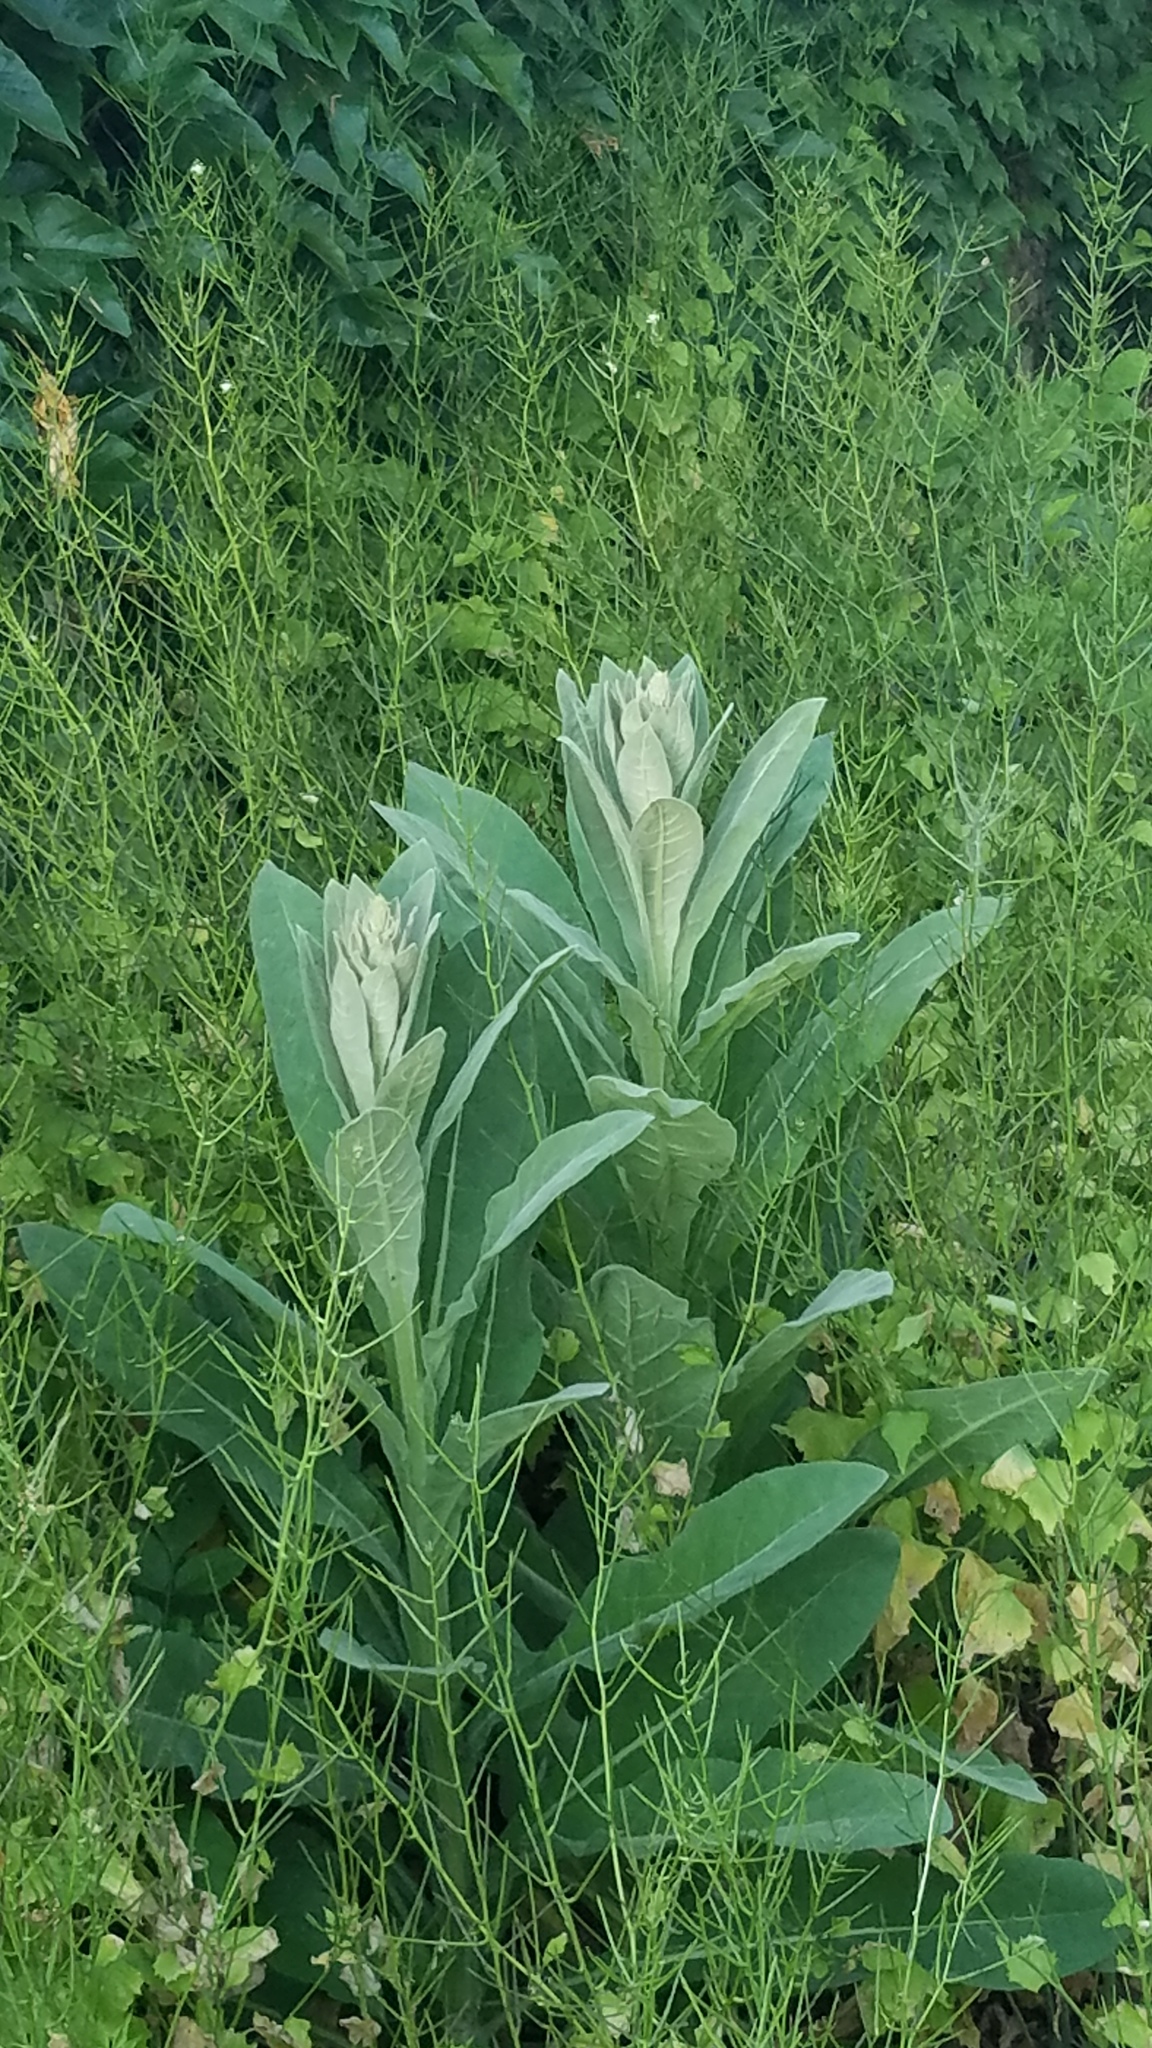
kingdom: Plantae
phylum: Tracheophyta
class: Magnoliopsida
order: Lamiales
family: Scrophulariaceae
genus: Verbascum
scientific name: Verbascum thapsus
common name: Common mullein
